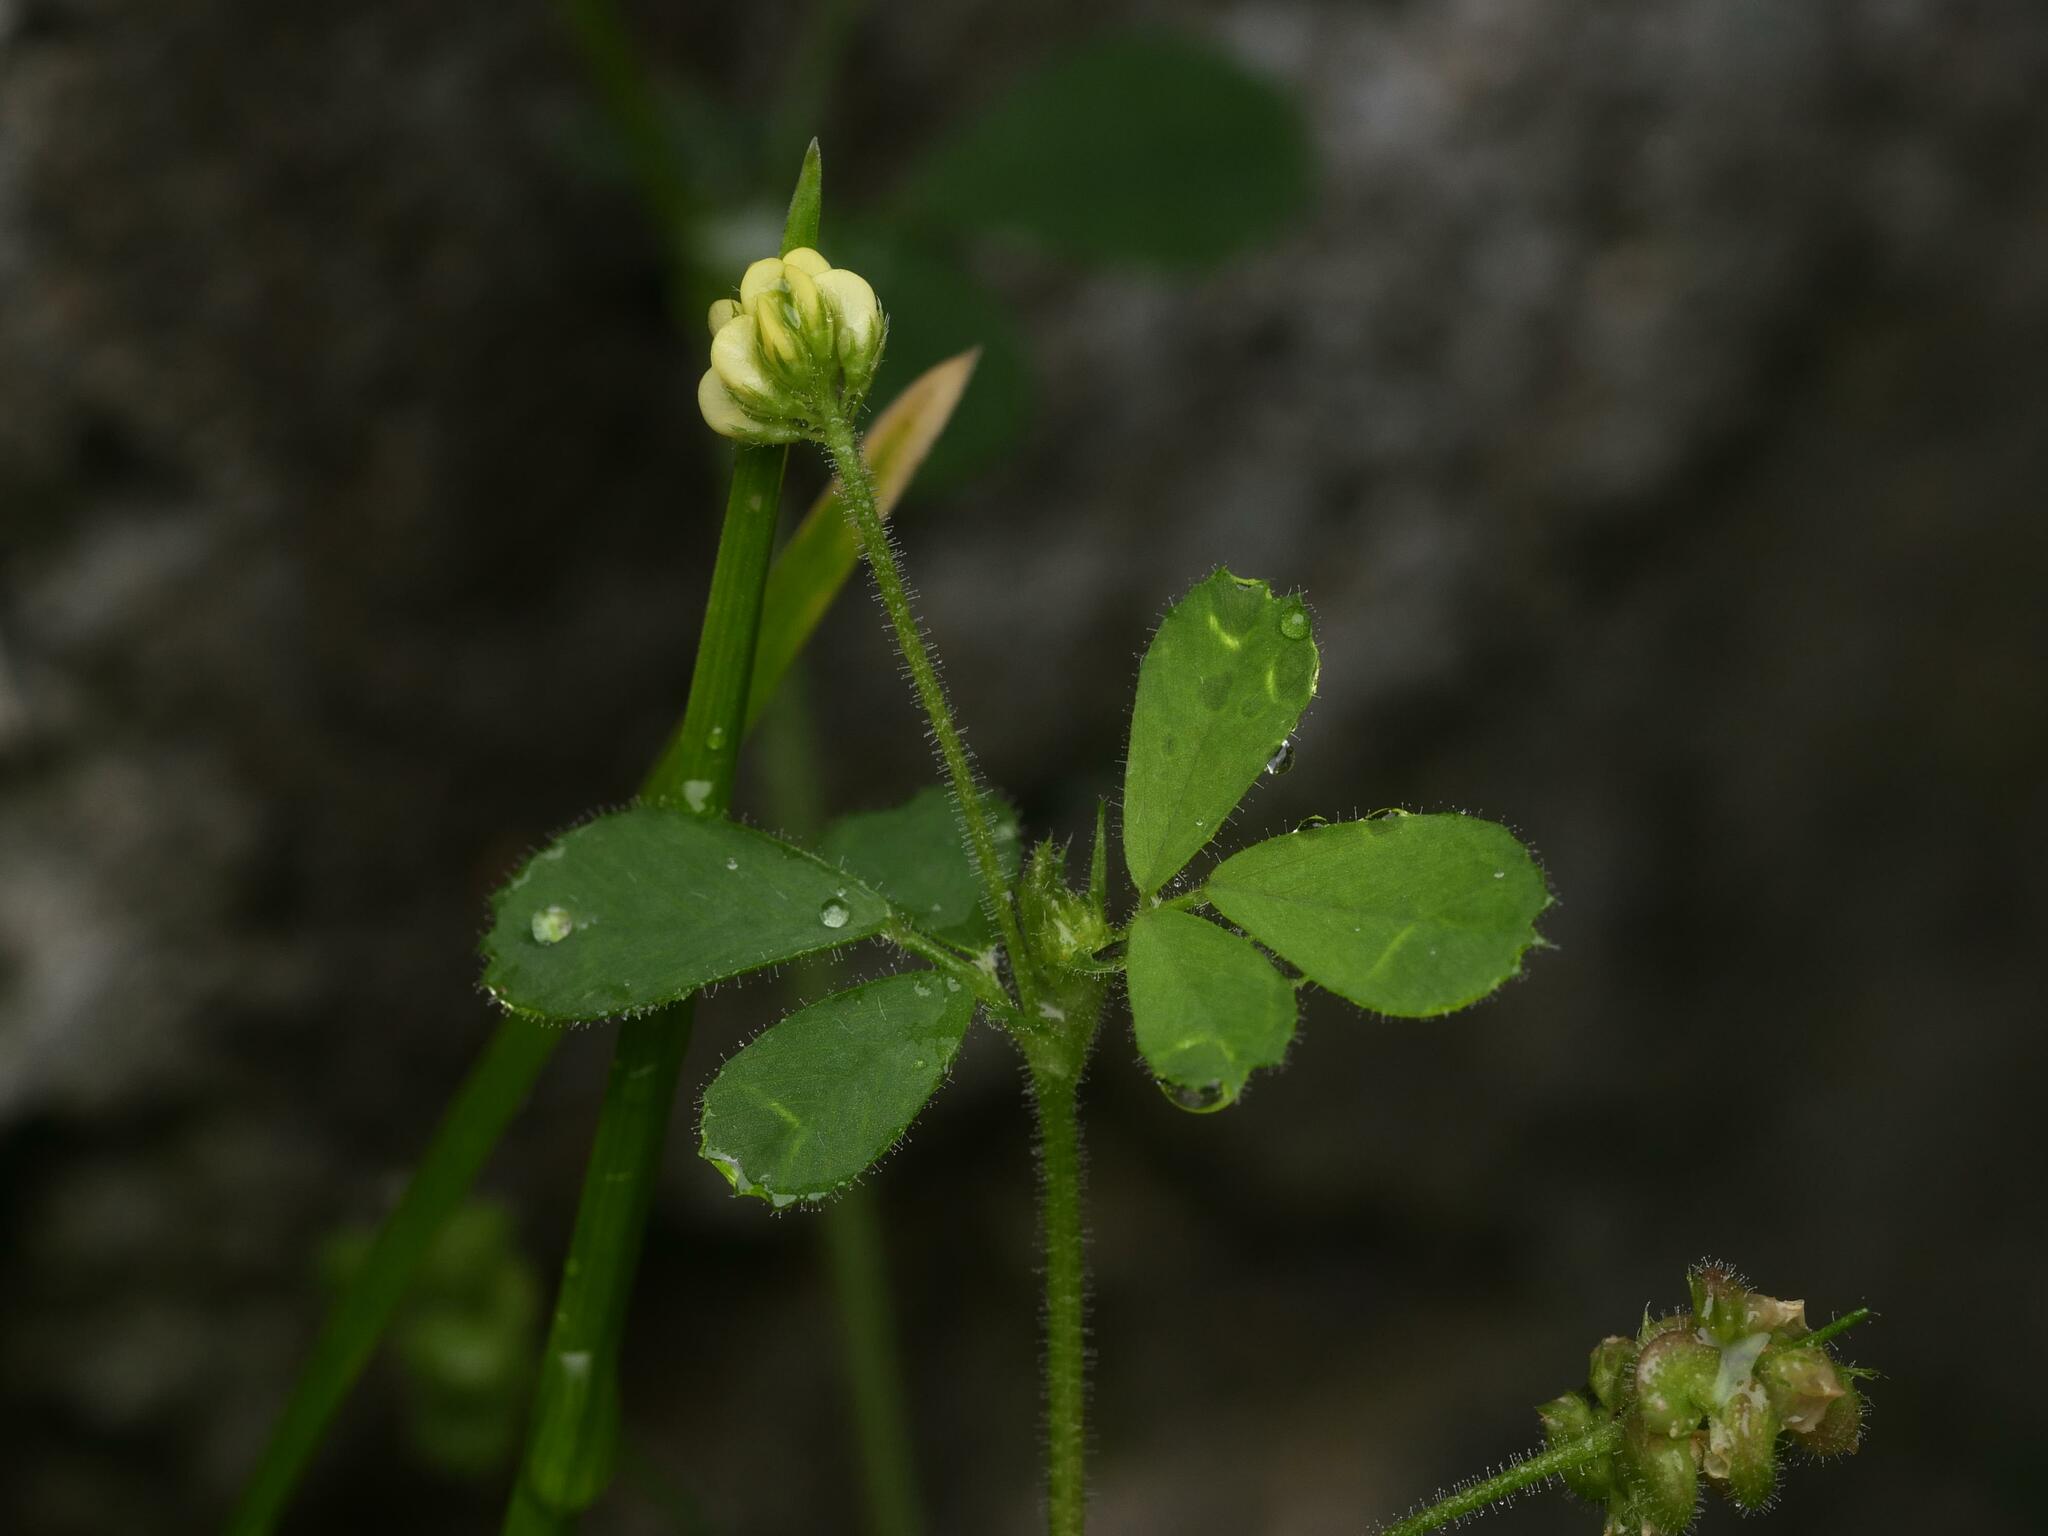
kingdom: Plantae
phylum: Tracheophyta
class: Magnoliopsida
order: Fabales
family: Fabaceae
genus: Medicago
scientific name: Medicago lupulina
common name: Black medick
